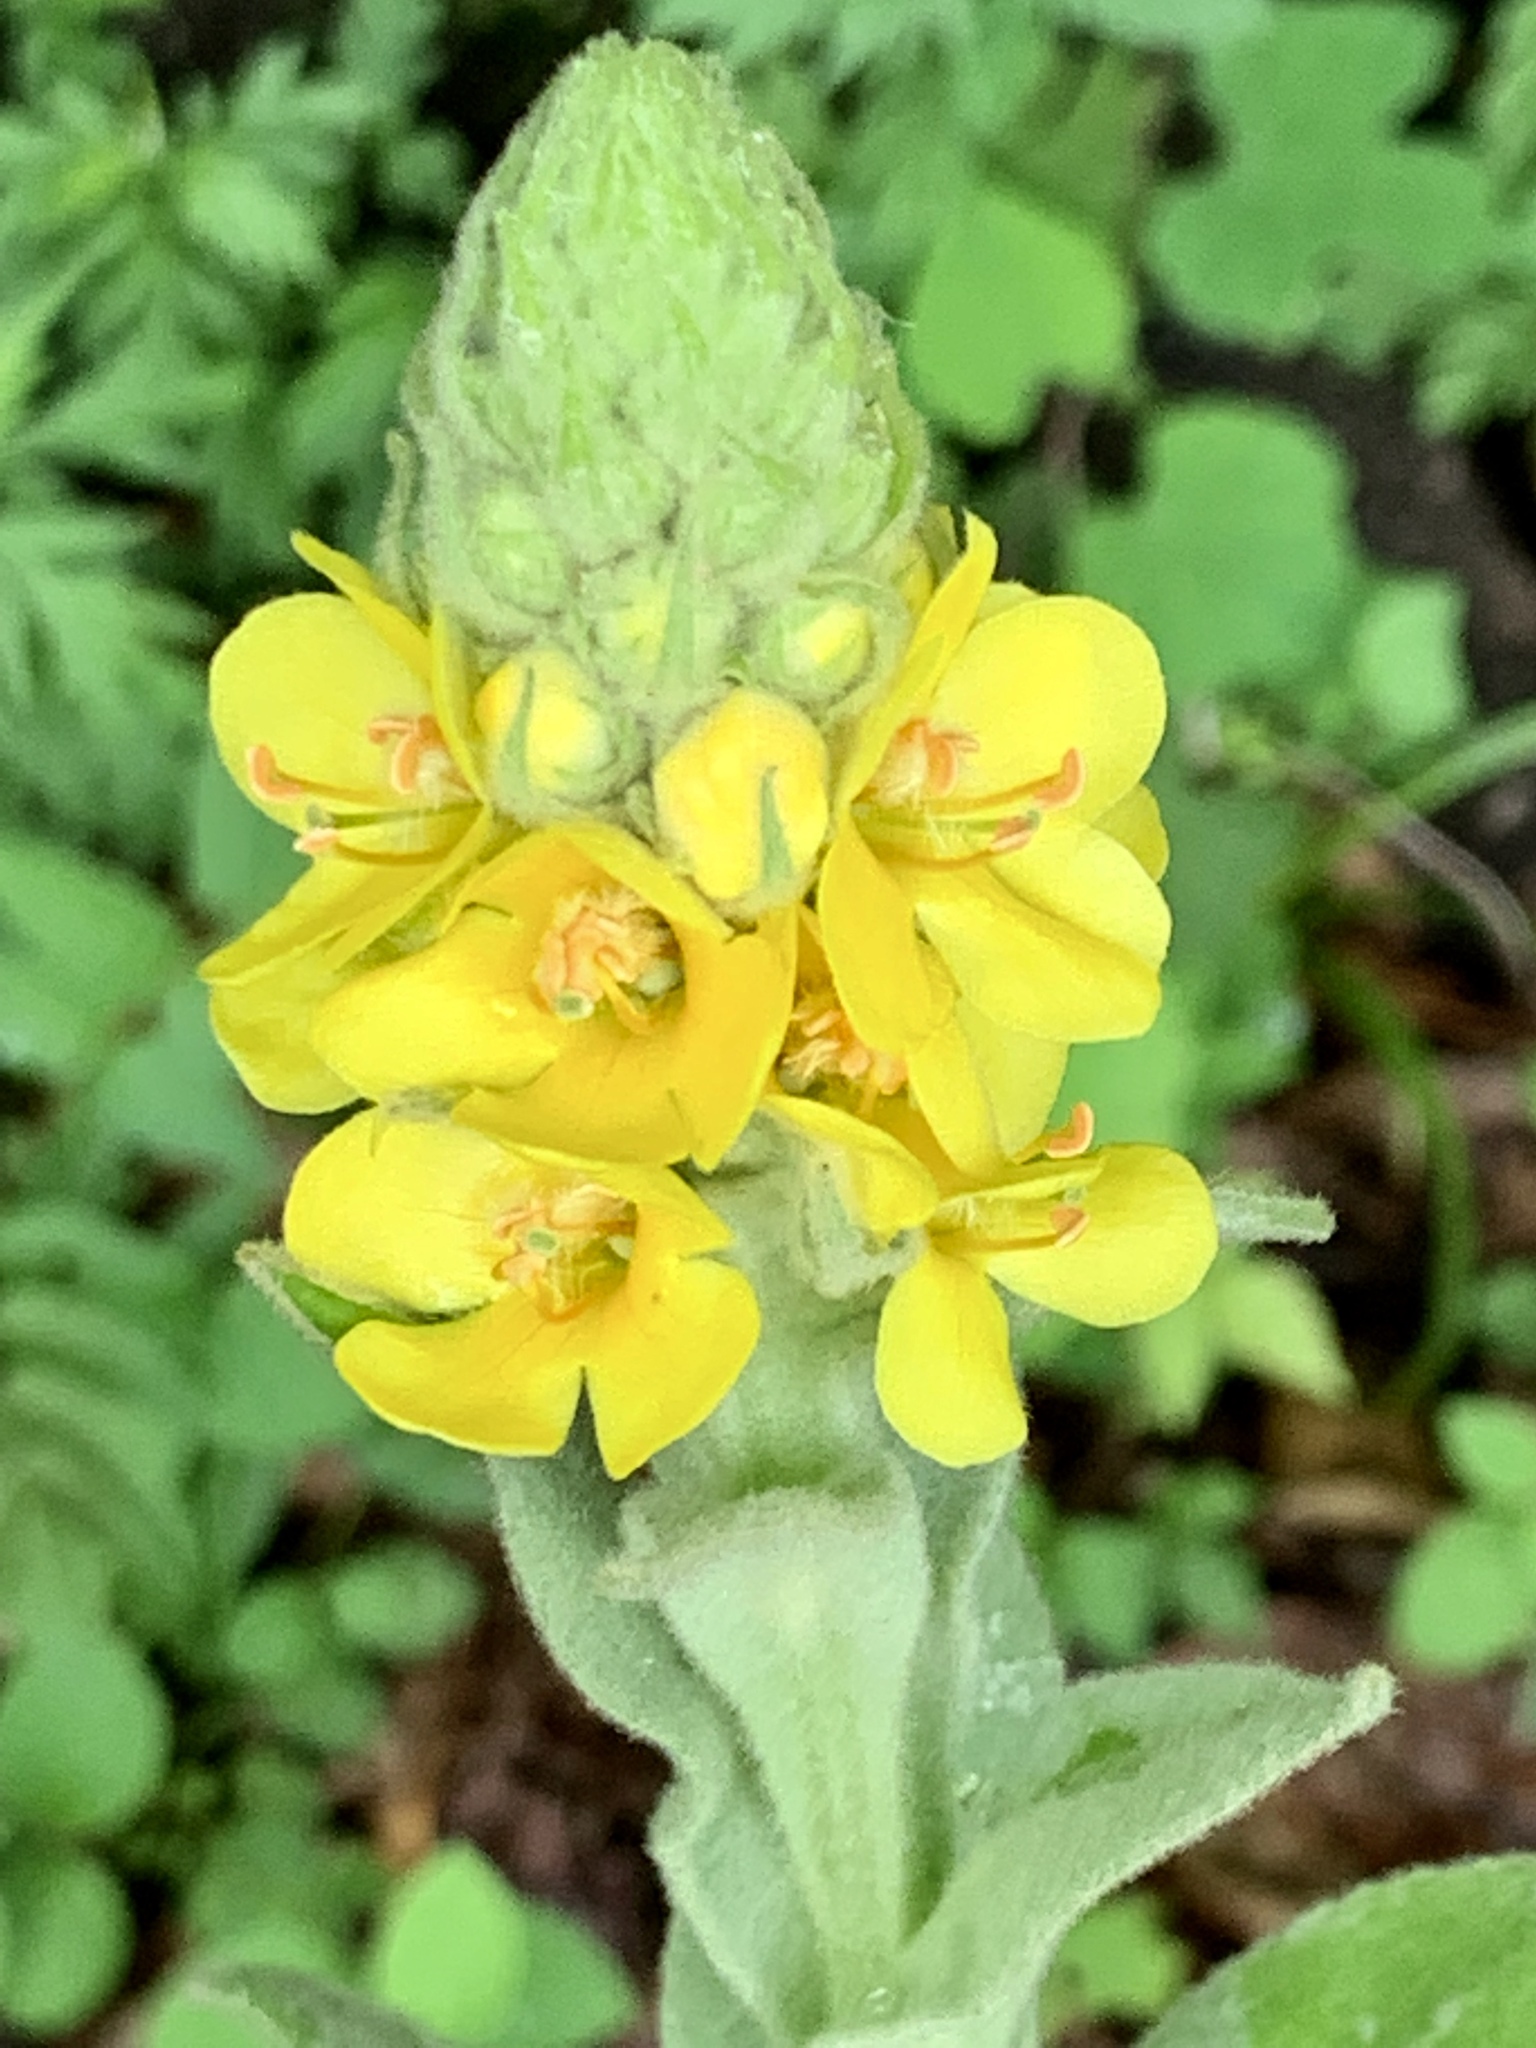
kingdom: Plantae
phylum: Tracheophyta
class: Magnoliopsida
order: Lamiales
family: Scrophulariaceae
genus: Verbascum
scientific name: Verbascum thapsus
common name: Common mullein
